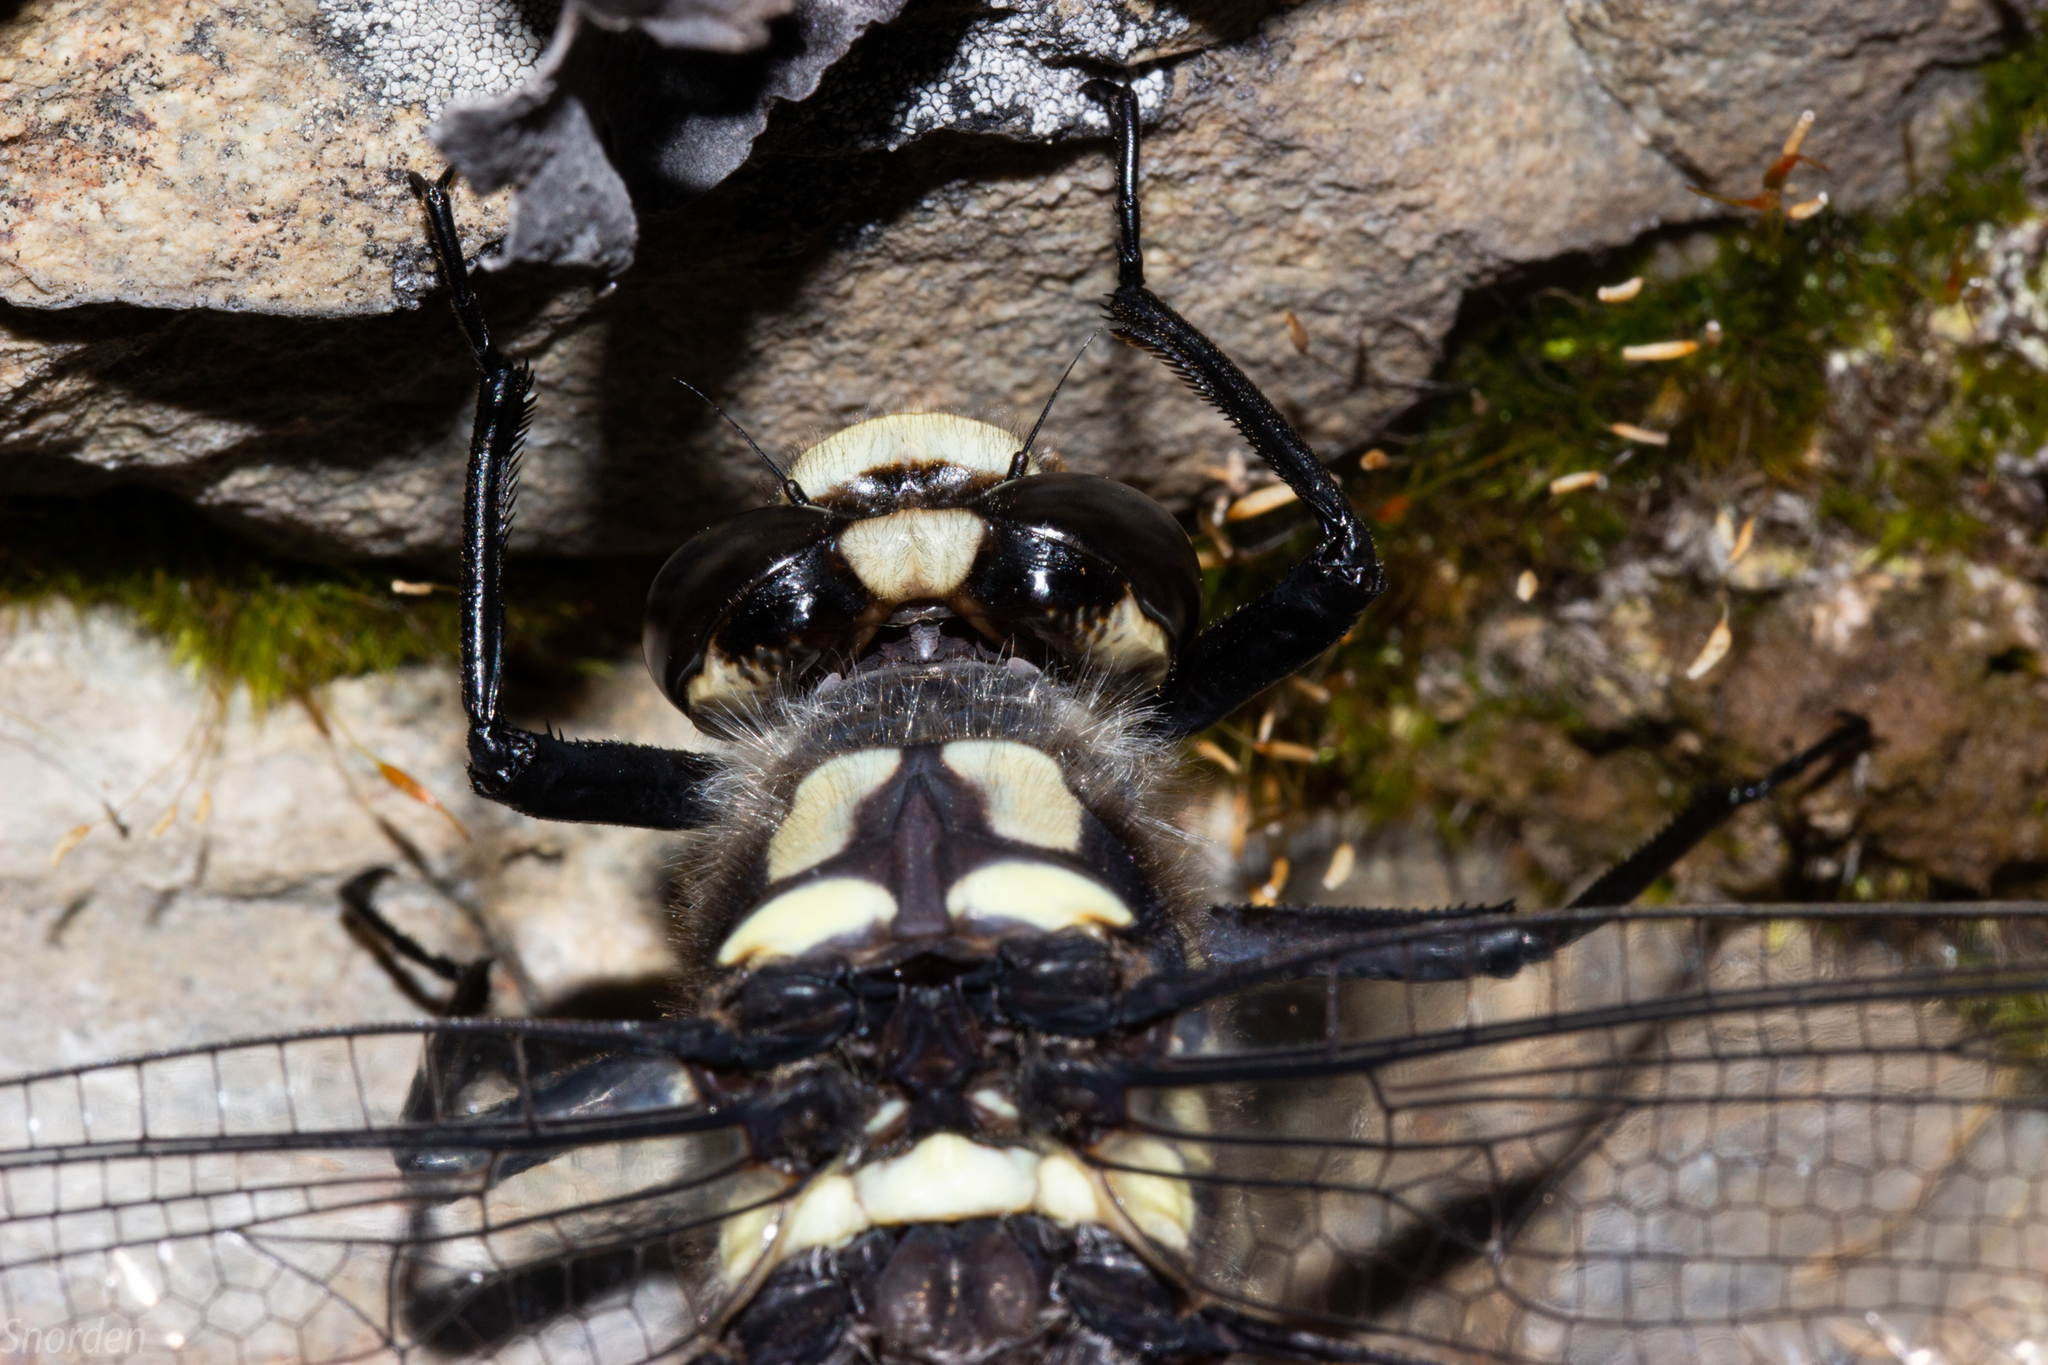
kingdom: Animalia
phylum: Arthropoda
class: Insecta
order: Odonata
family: Petaluridae
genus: Uropetala
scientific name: Uropetala chiltoni
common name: Mountain giant dragonfly
